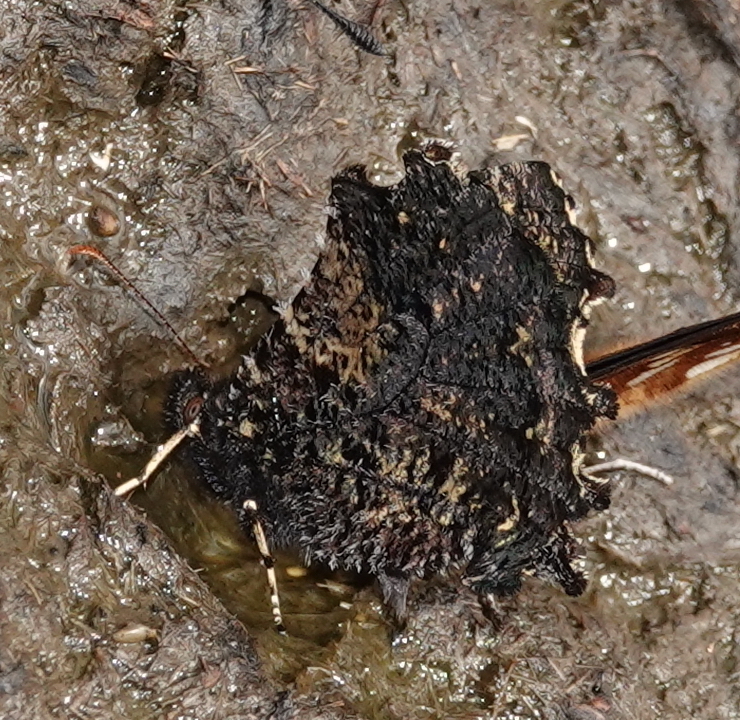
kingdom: Animalia
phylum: Arthropoda
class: Insecta
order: Lepidoptera
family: Nymphalidae
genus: Steroma
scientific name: Steroma bega
